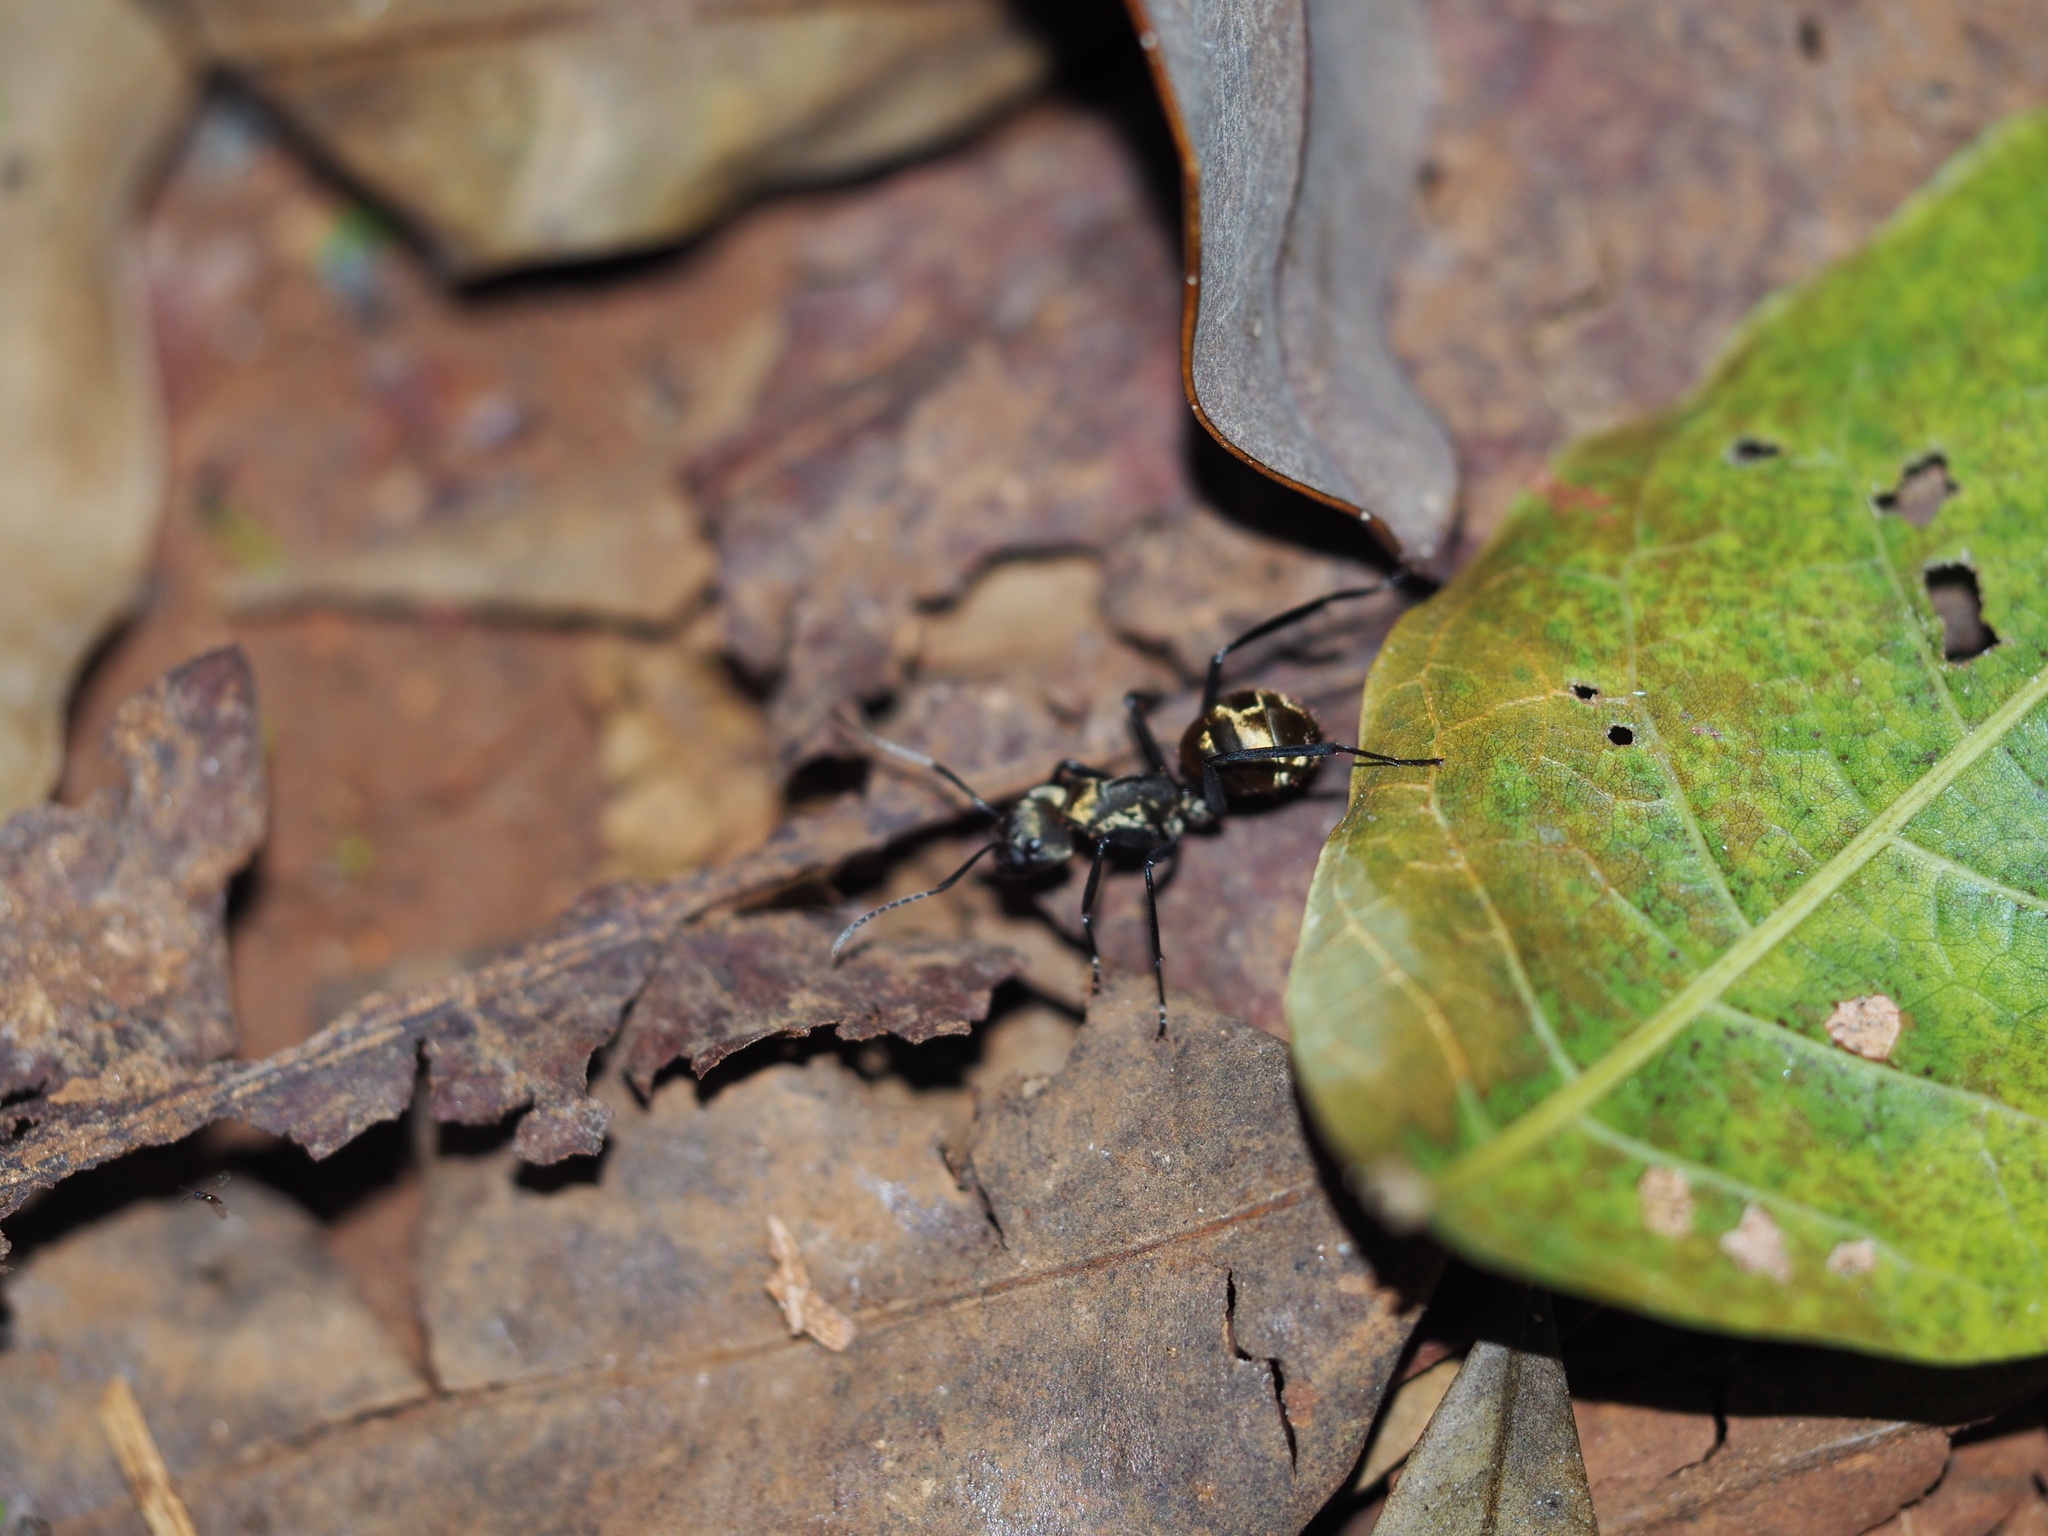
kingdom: Animalia
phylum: Arthropoda
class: Insecta
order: Hymenoptera
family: Formicidae
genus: Camponotus
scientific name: Camponotus sericeiventris
